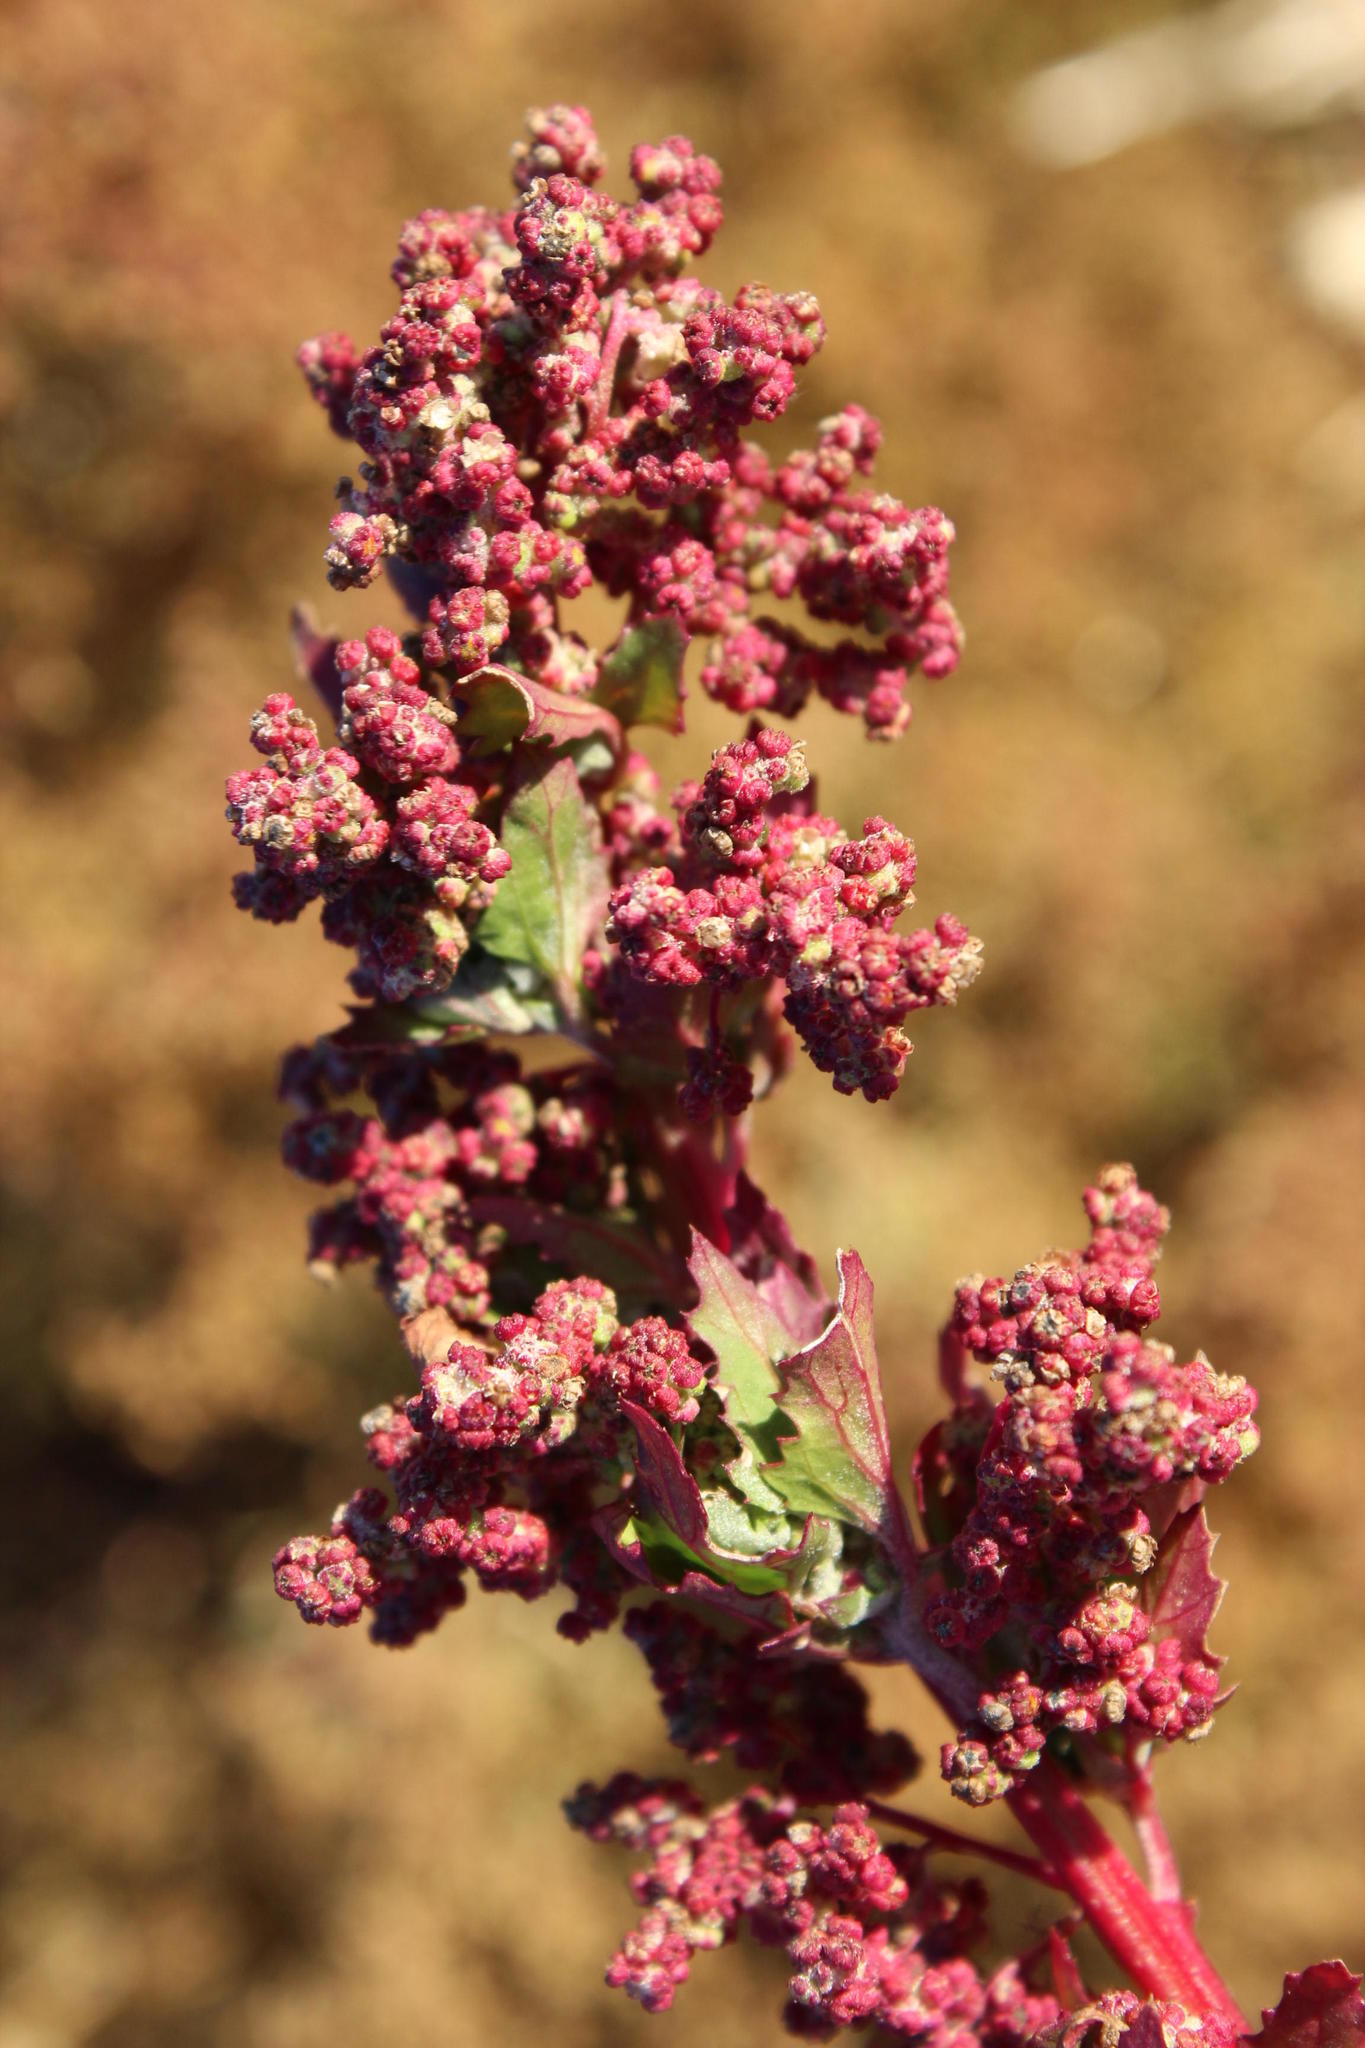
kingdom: Plantae
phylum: Tracheophyta
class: Magnoliopsida
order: Caryophyllales
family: Amaranthaceae
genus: Chenopodiastrum
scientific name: Chenopodiastrum murale
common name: Sowbane
